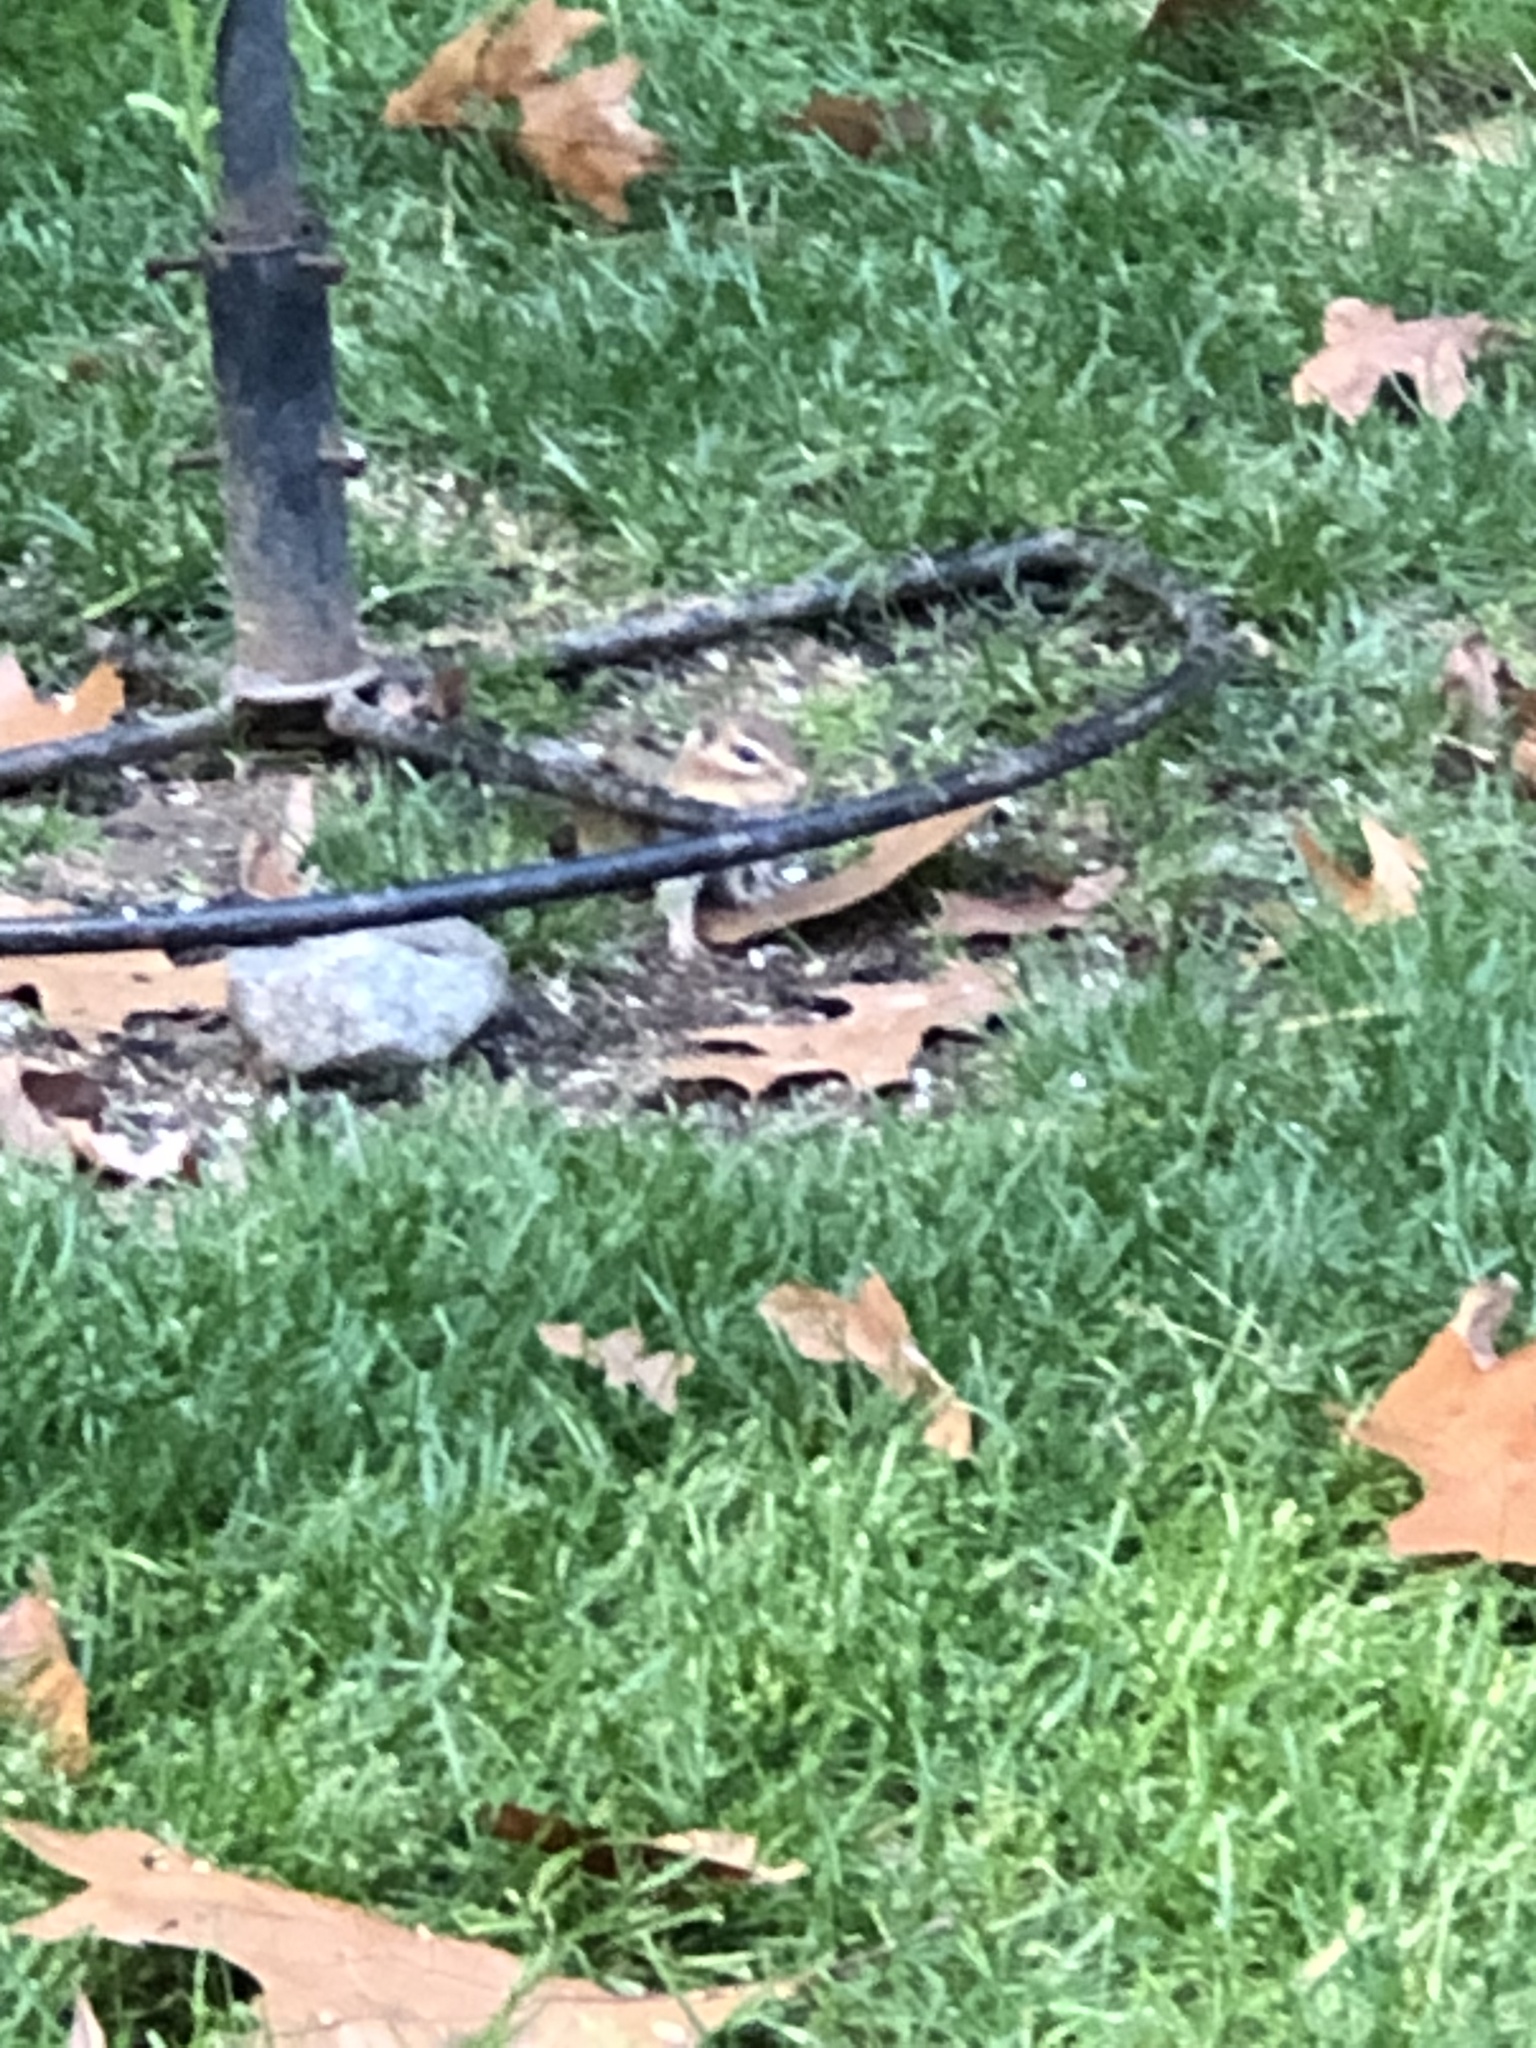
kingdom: Animalia
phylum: Chordata
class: Mammalia
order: Rodentia
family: Sciuridae
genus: Tamias
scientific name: Tamias striatus
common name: Eastern chipmunk
